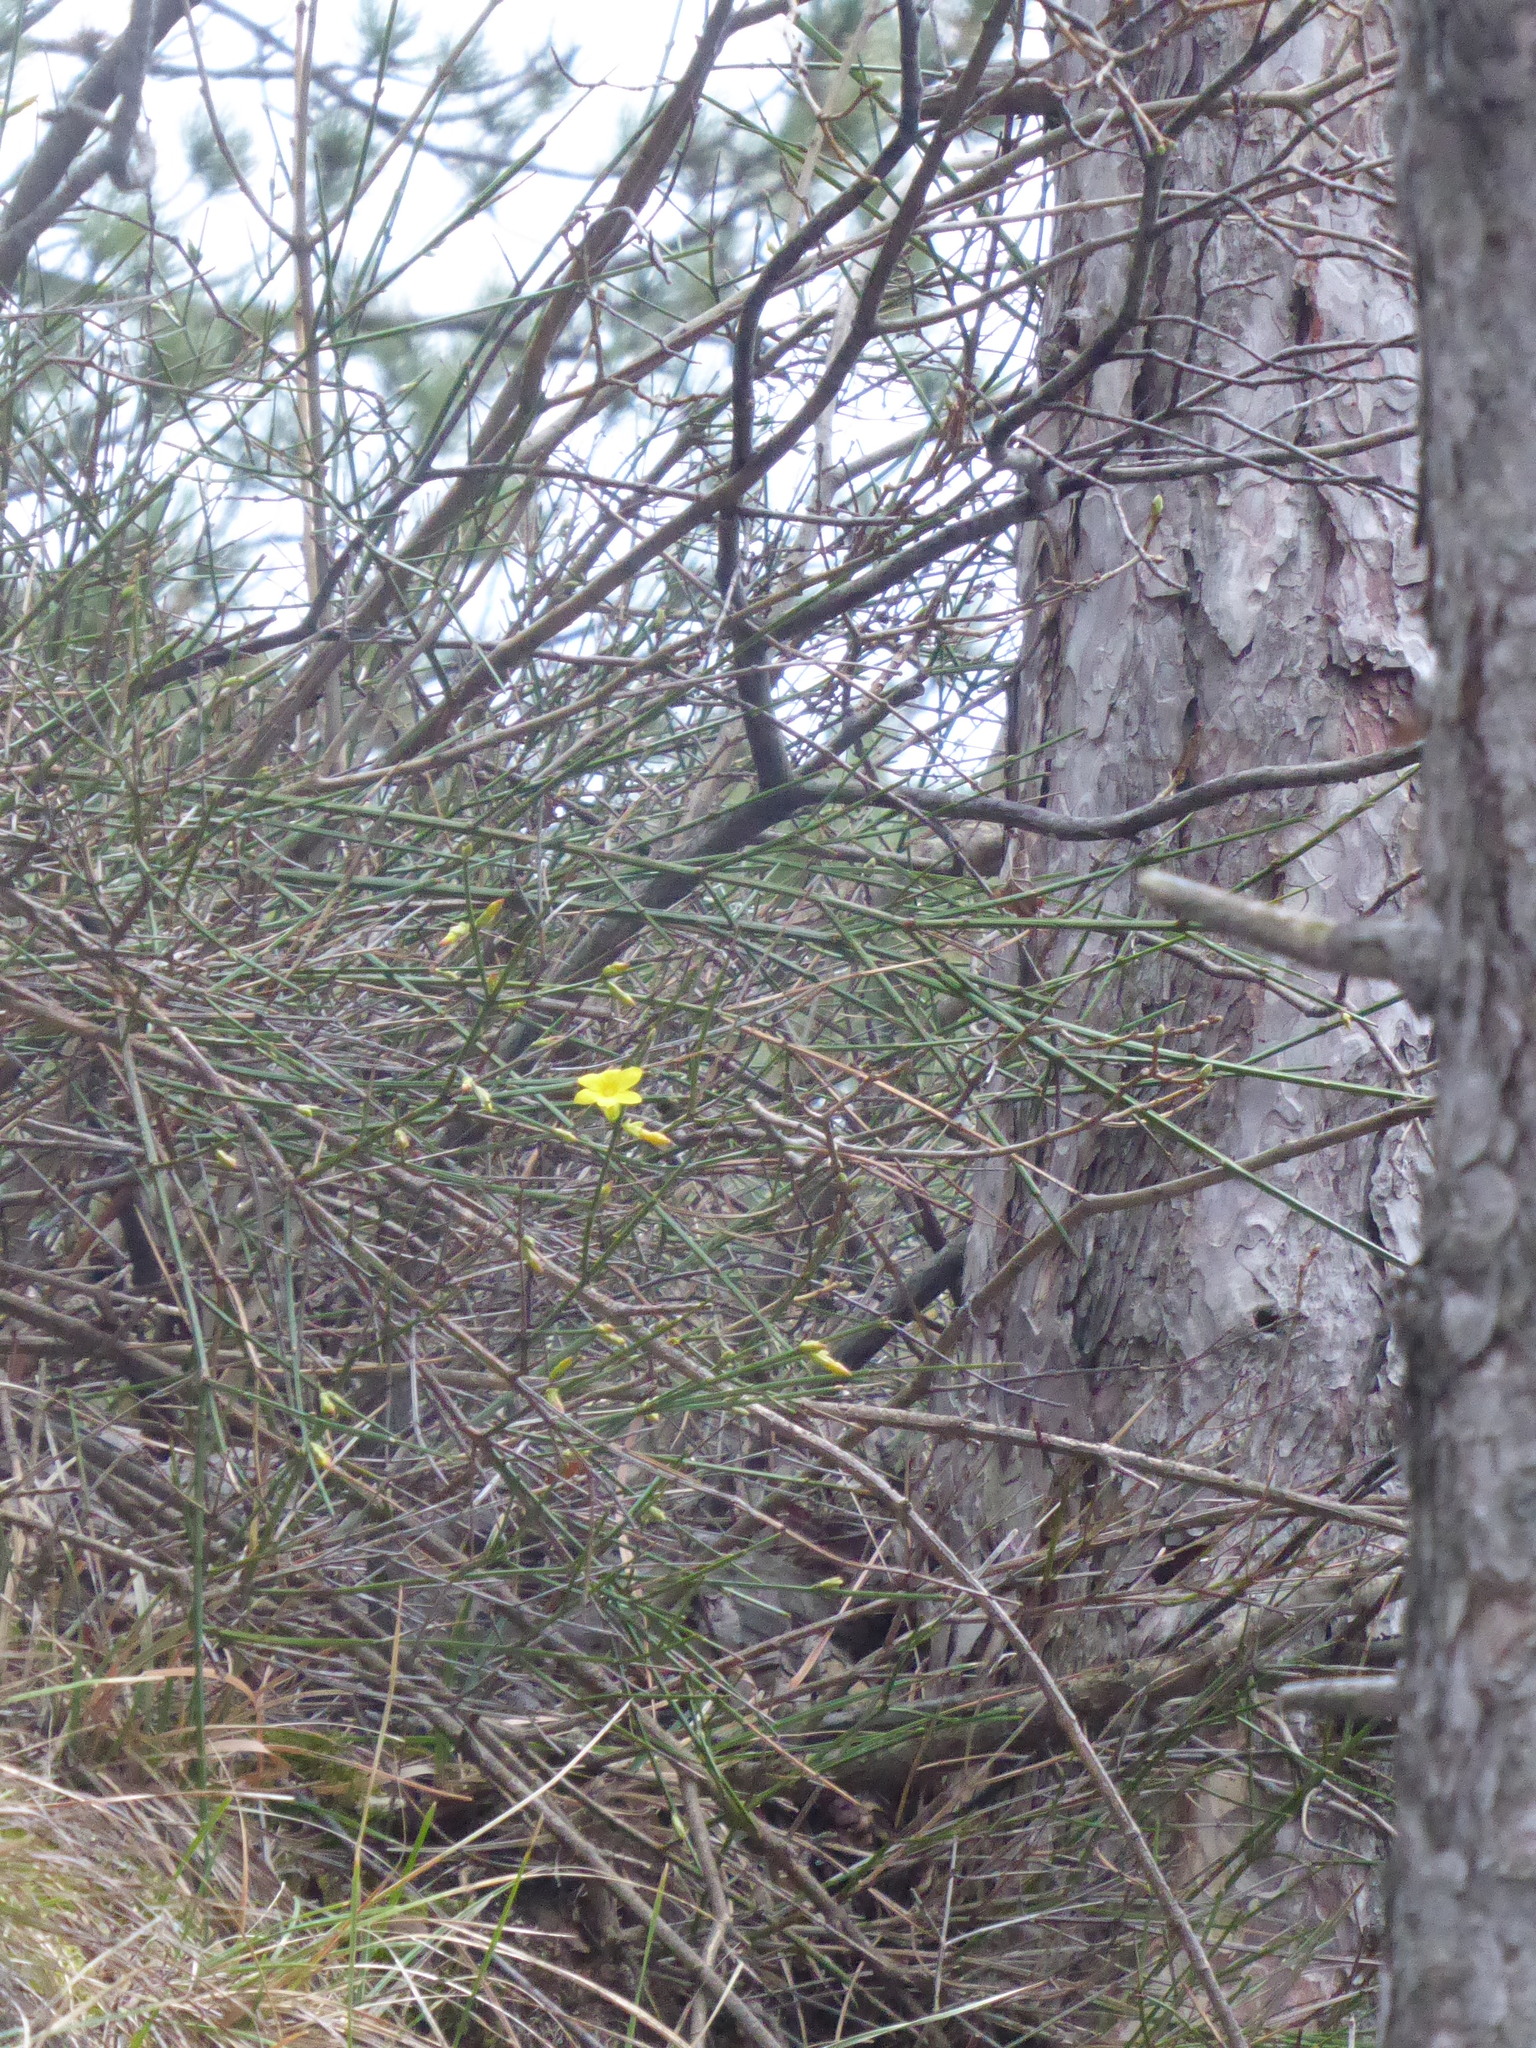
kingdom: Plantae
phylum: Tracheophyta
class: Magnoliopsida
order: Lamiales
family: Oleaceae
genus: Jasminum
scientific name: Jasminum nudiflorum
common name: Winter jasmine
